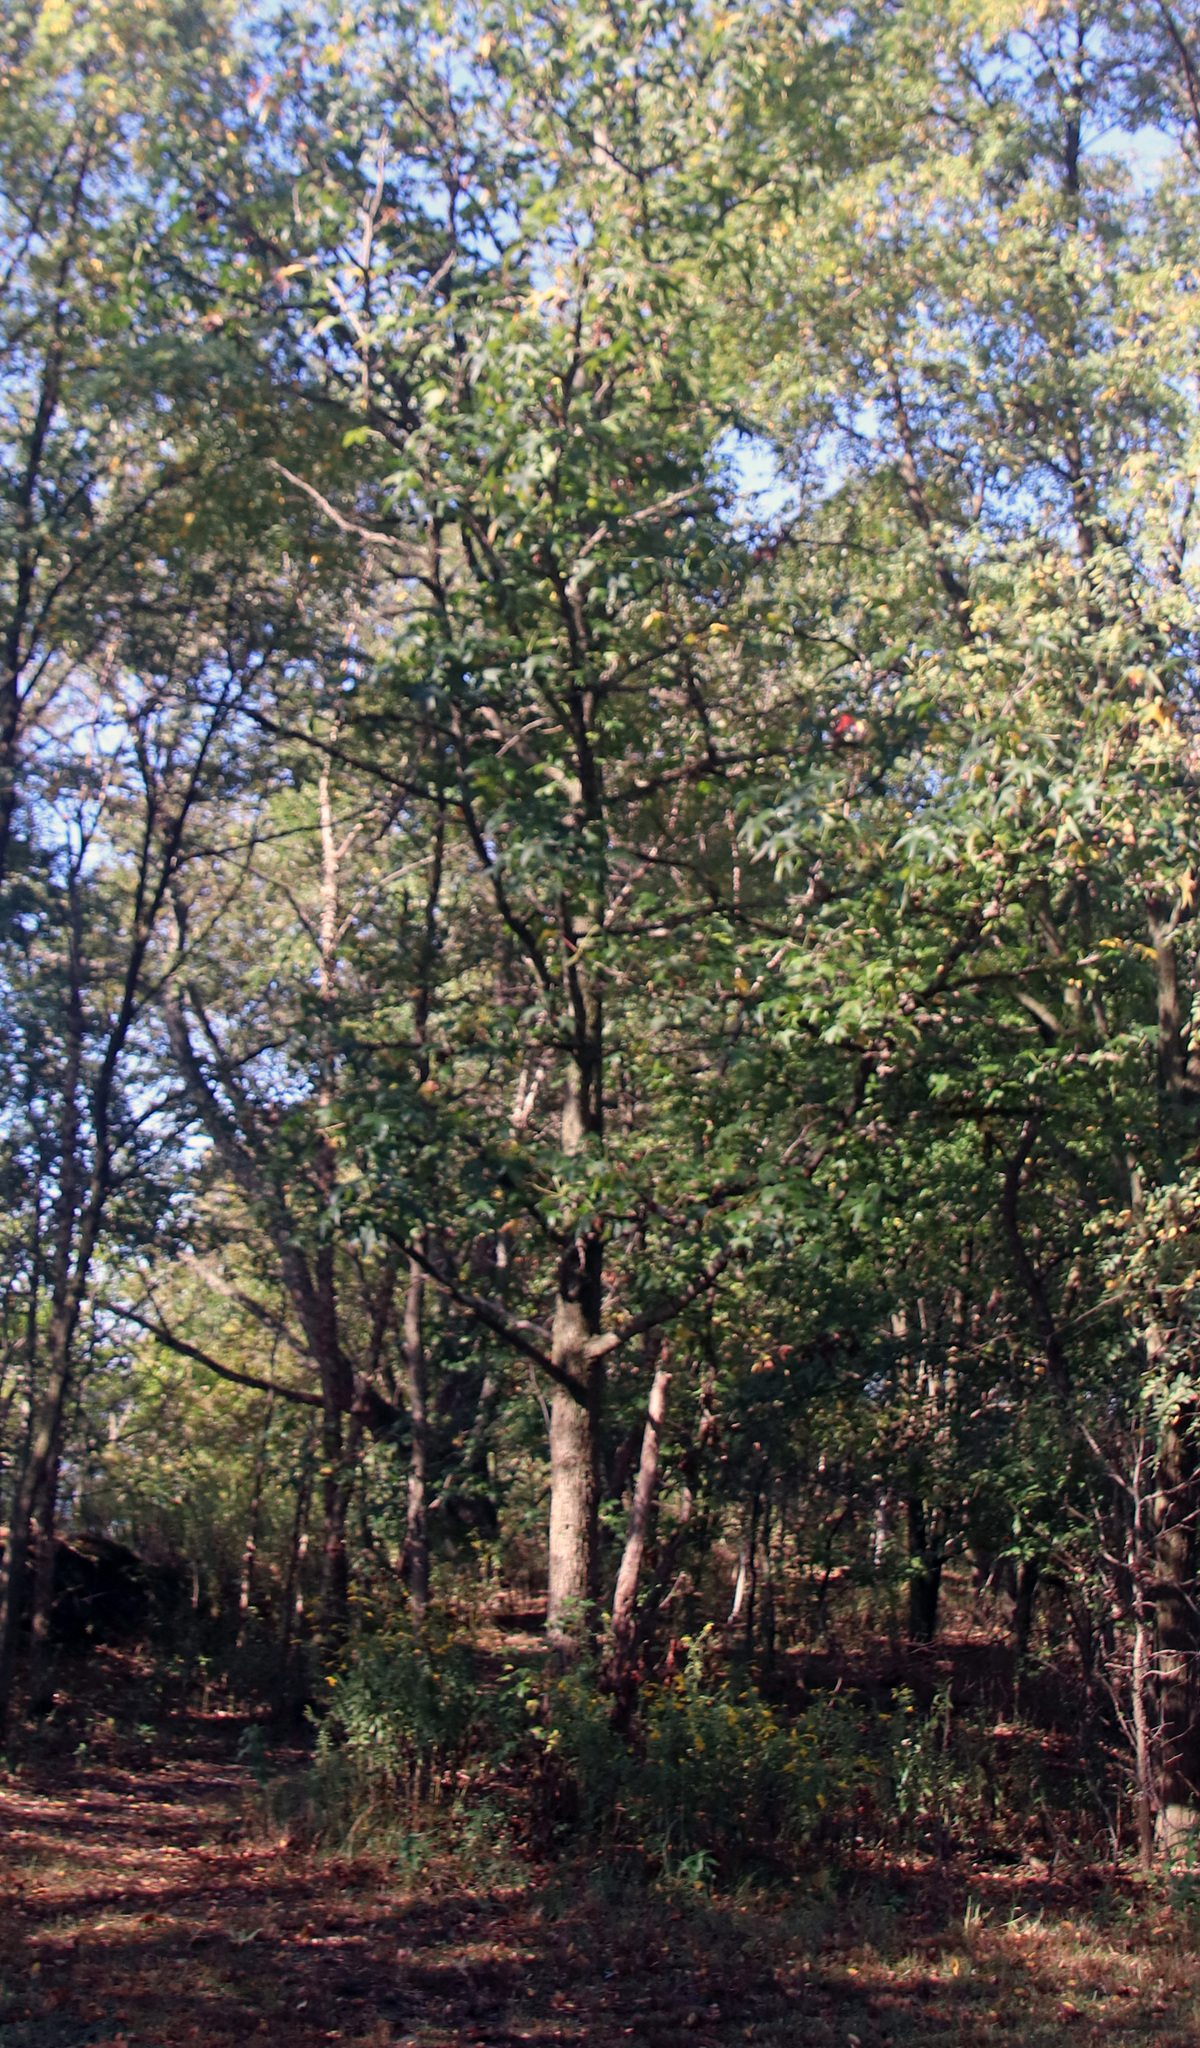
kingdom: Plantae
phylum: Tracheophyta
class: Magnoliopsida
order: Saxifragales
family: Altingiaceae
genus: Liquidambar
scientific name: Liquidambar styraciflua
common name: Sweet gum
